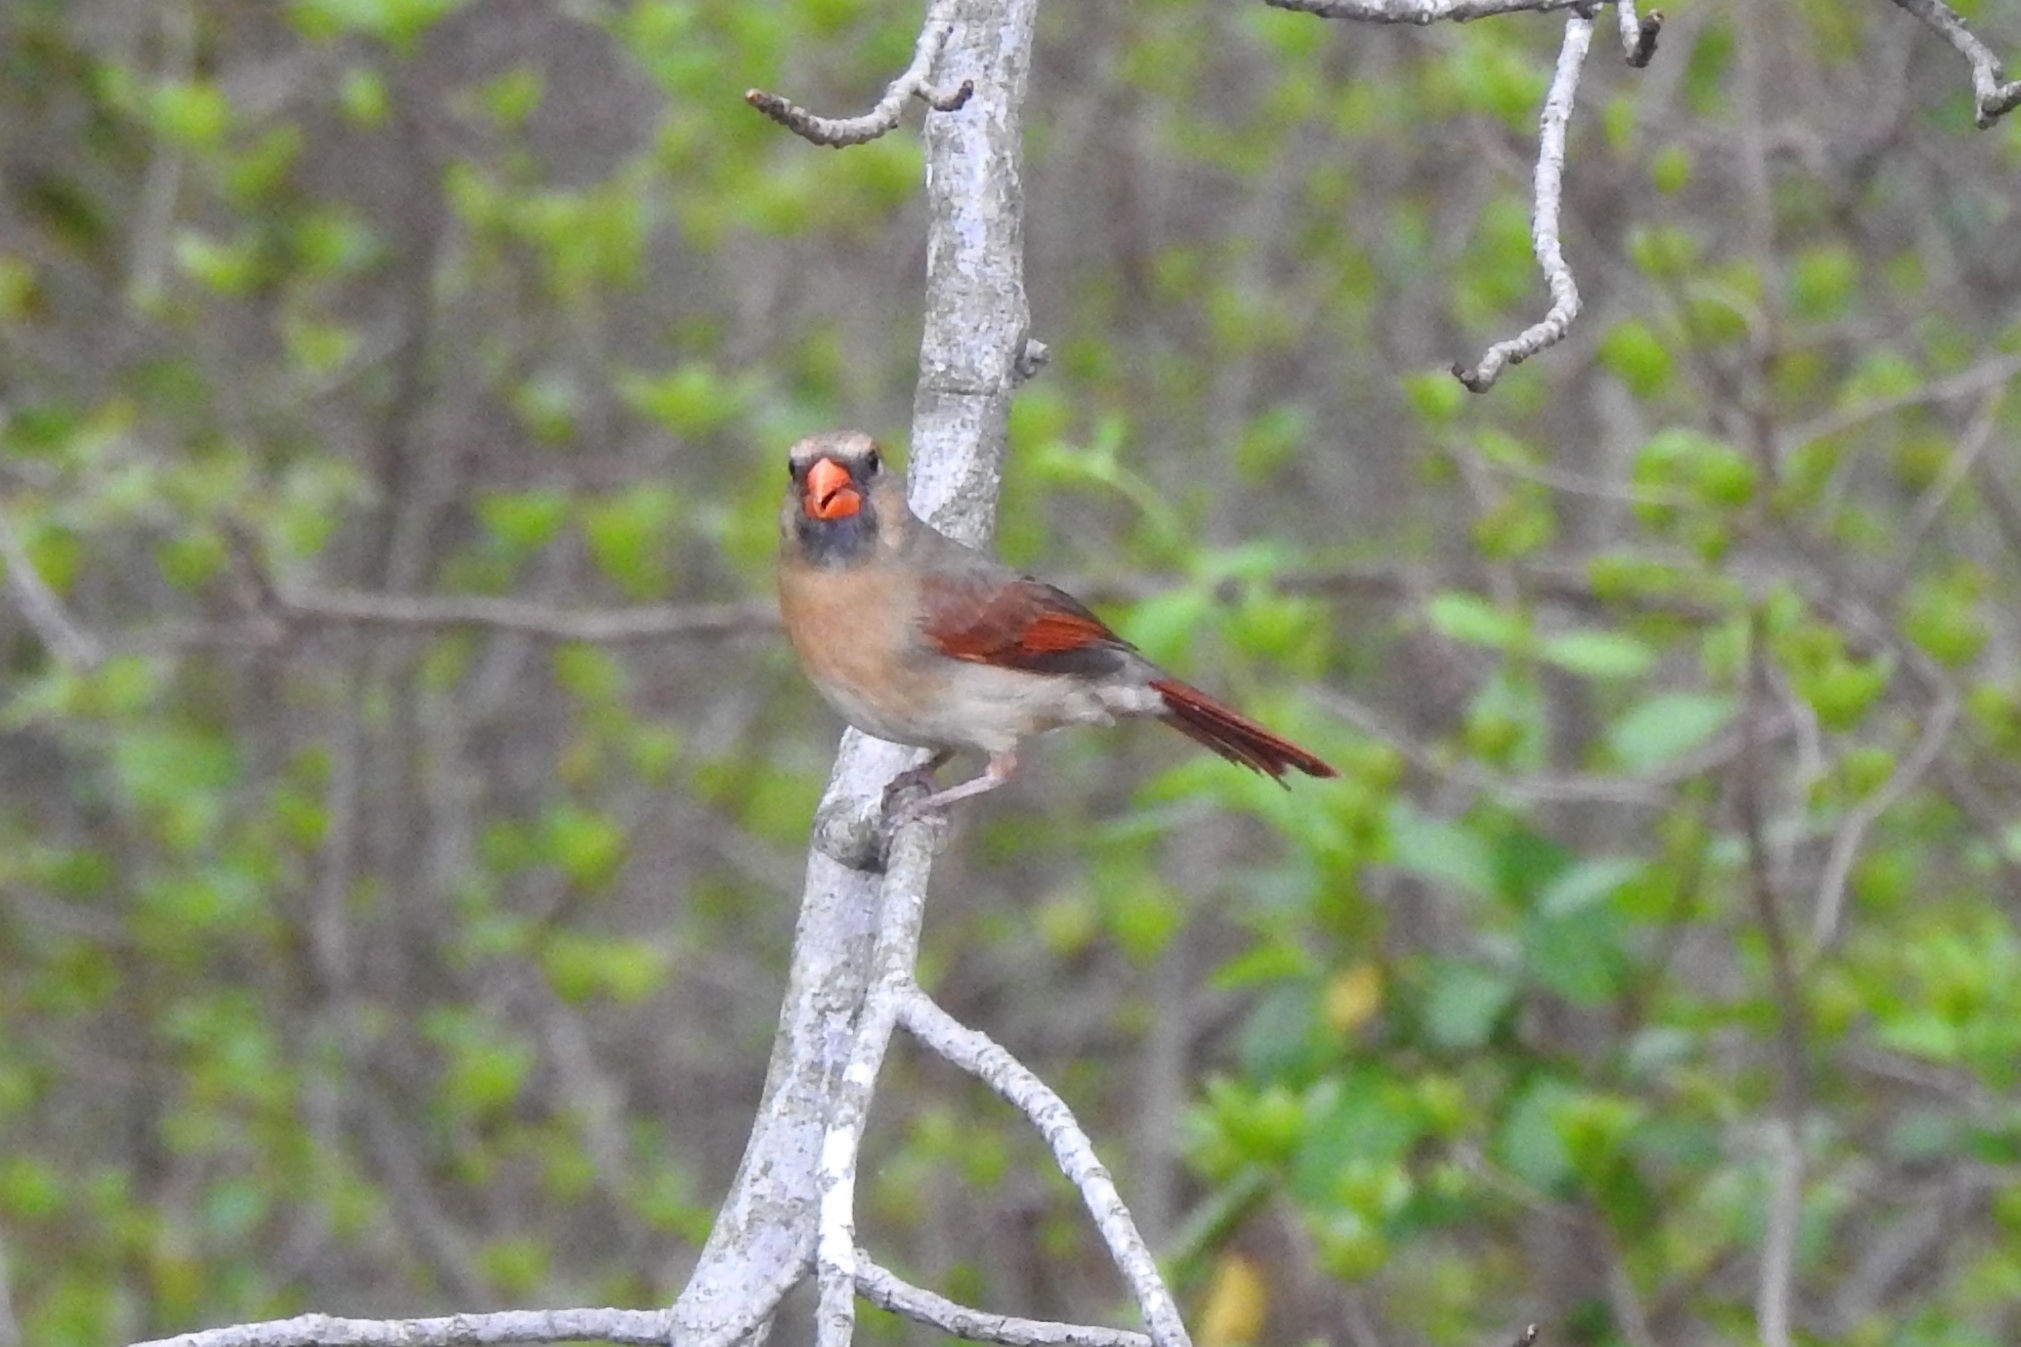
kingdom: Animalia
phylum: Chordata
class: Aves
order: Passeriformes
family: Cardinalidae
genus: Cardinalis
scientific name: Cardinalis cardinalis
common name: Northern cardinal
